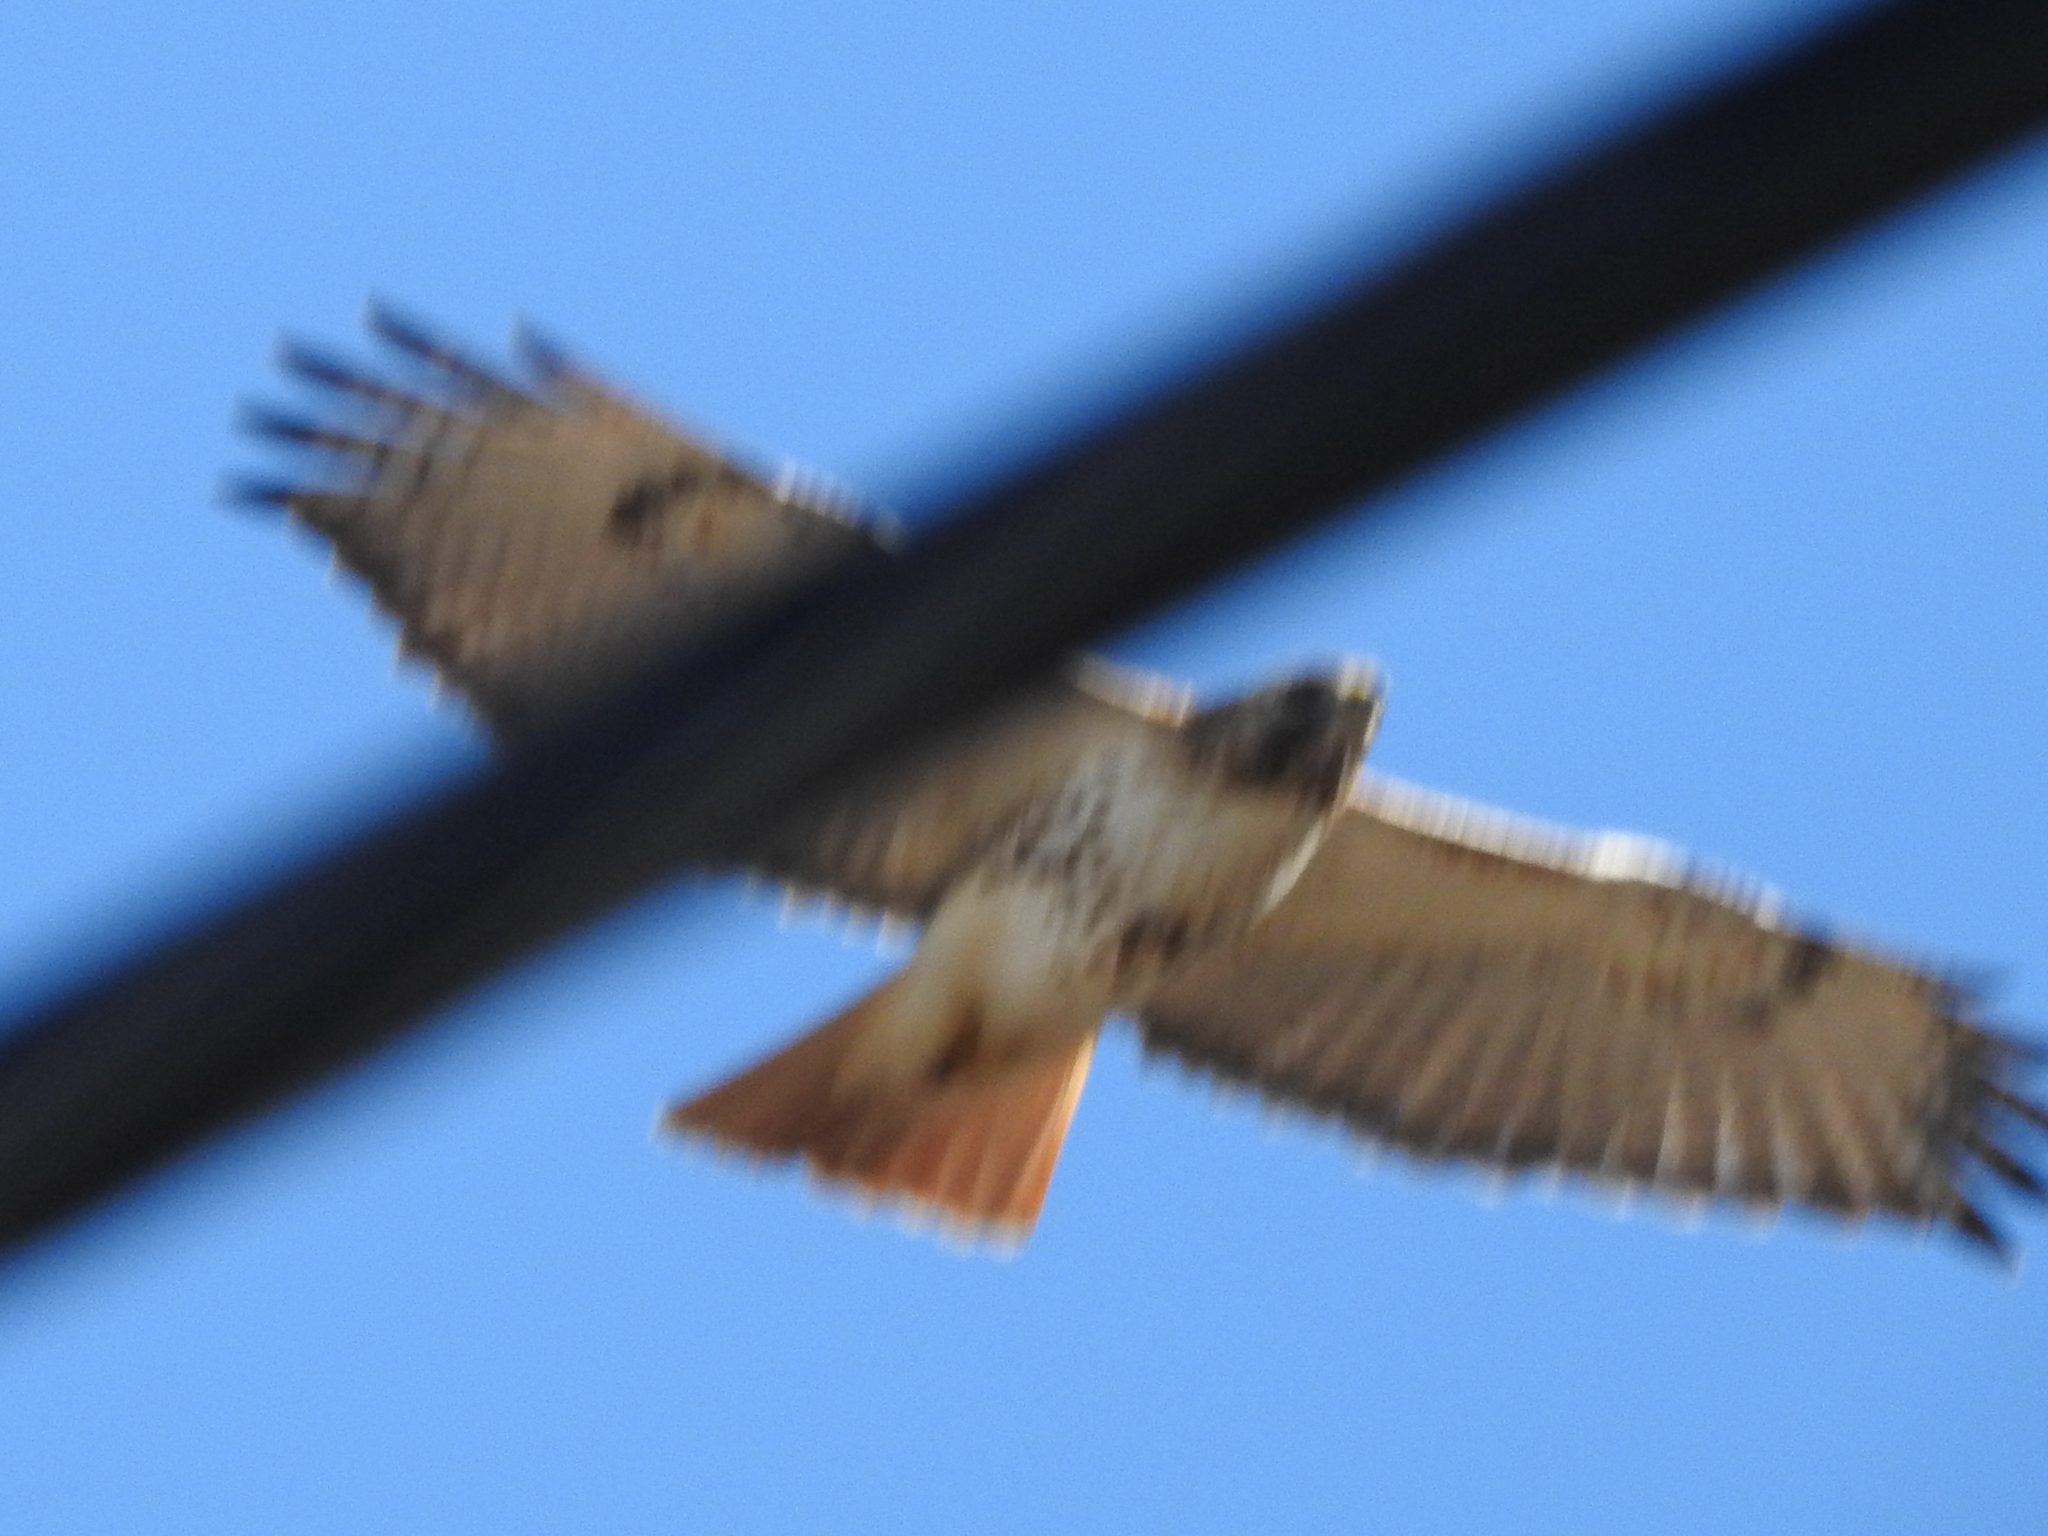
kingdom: Animalia
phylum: Chordata
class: Aves
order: Accipitriformes
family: Accipitridae
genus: Buteo
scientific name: Buteo jamaicensis
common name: Red-tailed hawk
